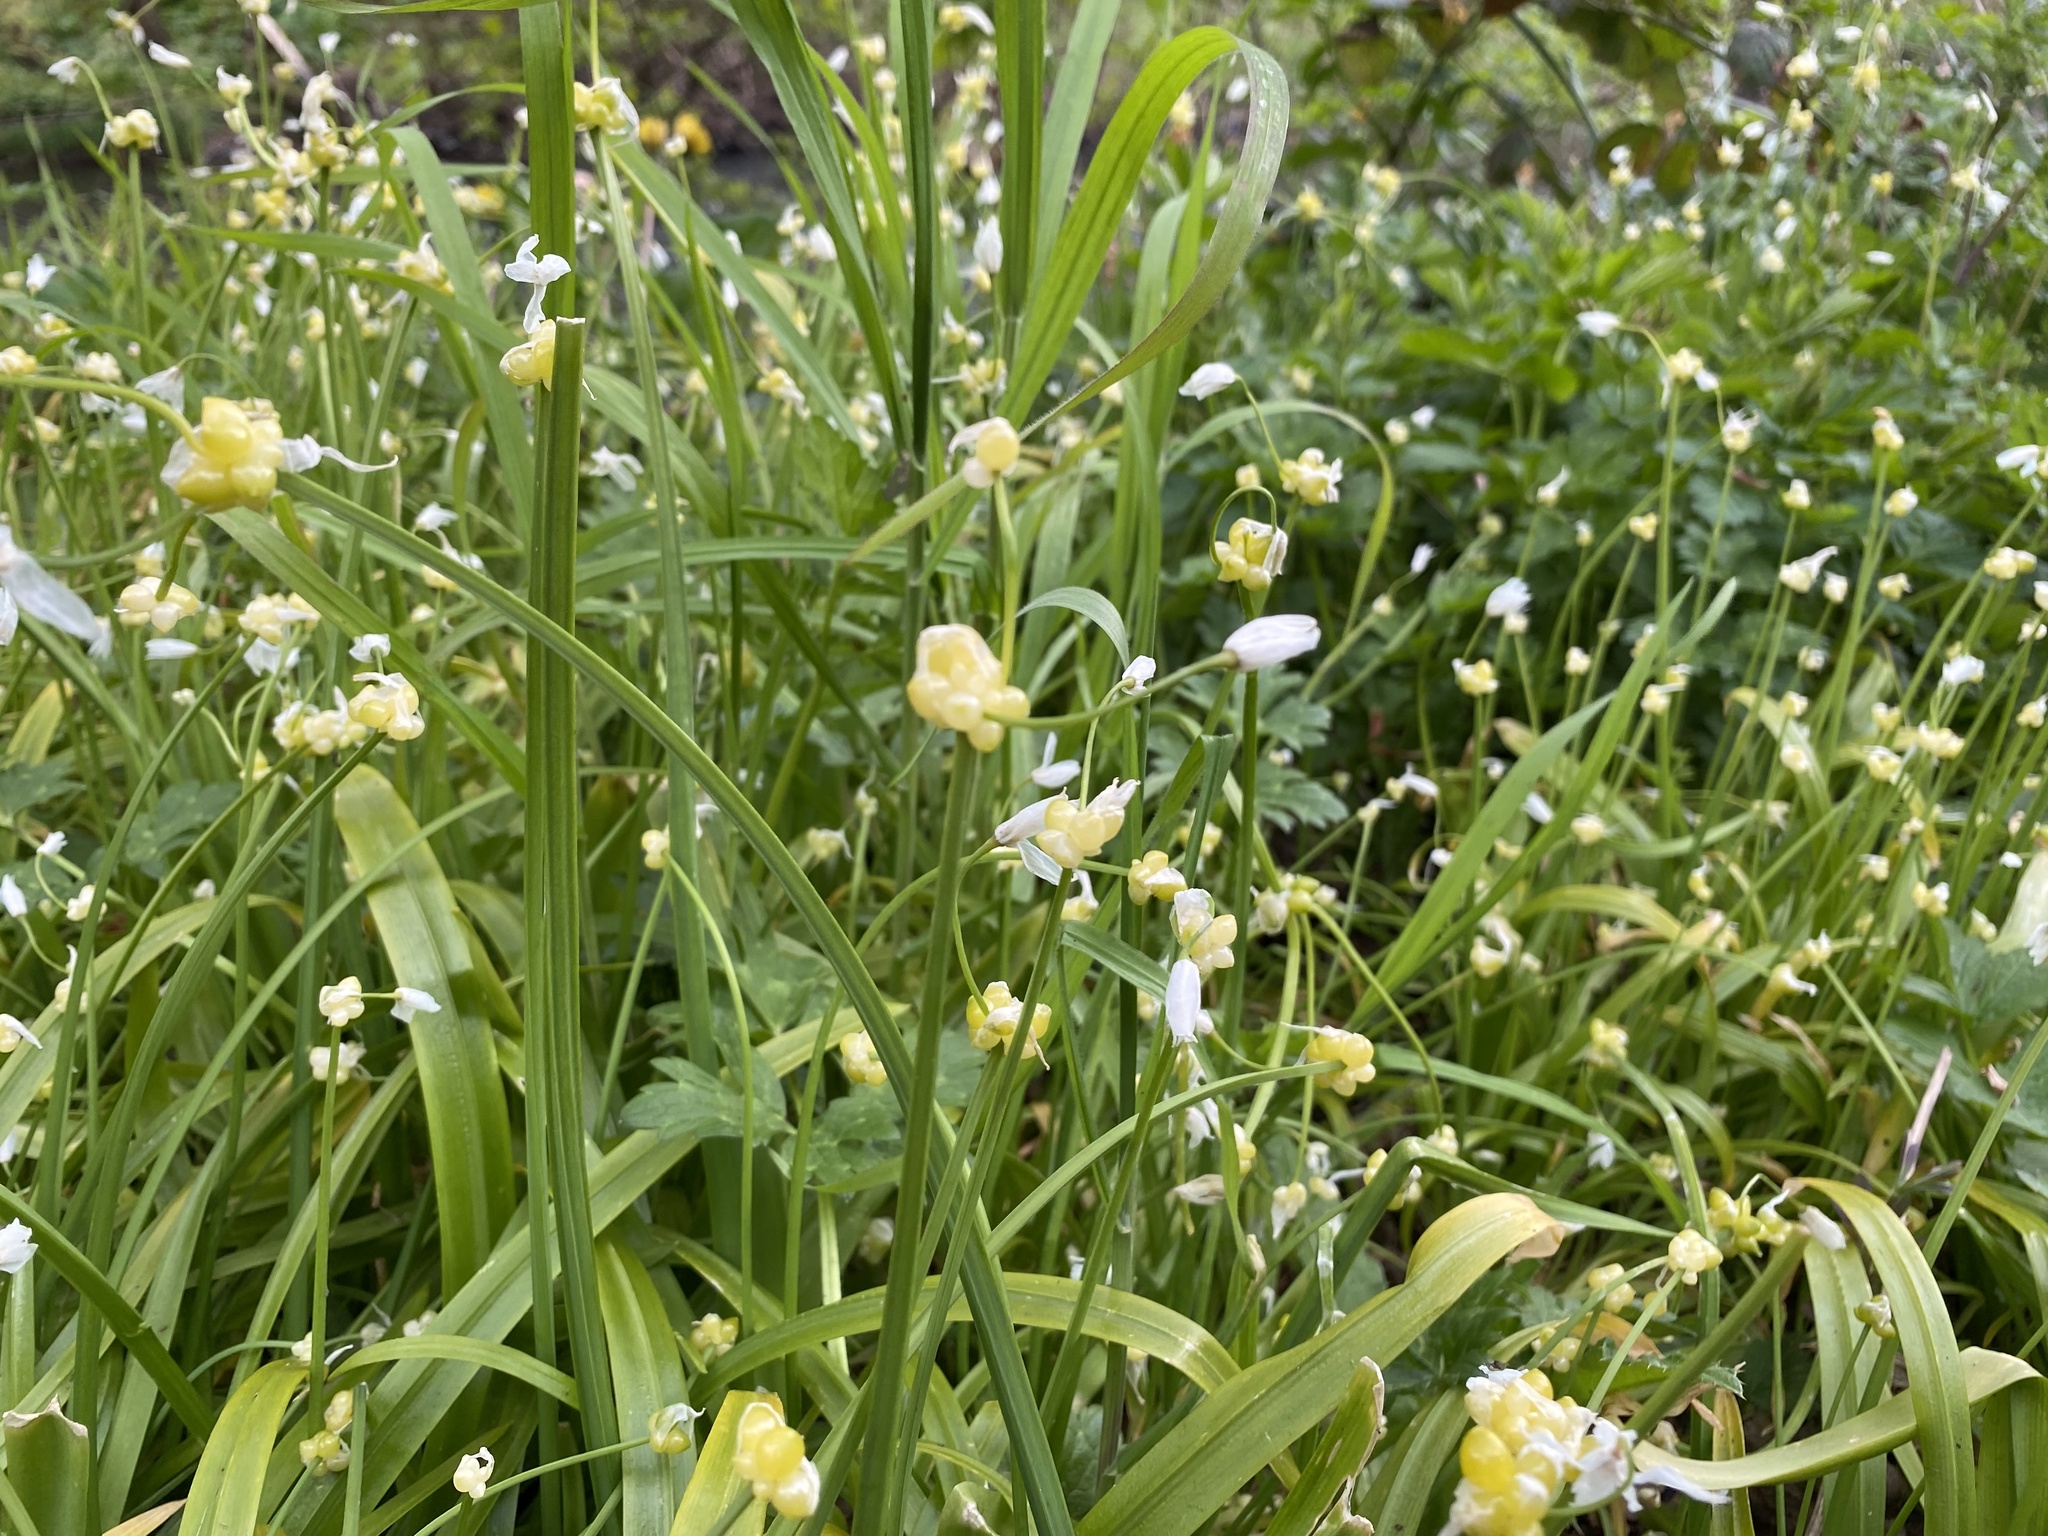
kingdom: Plantae
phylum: Tracheophyta
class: Liliopsida
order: Asparagales
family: Amaryllidaceae
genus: Allium
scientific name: Allium paradoxum
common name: Few-flowered garlic
